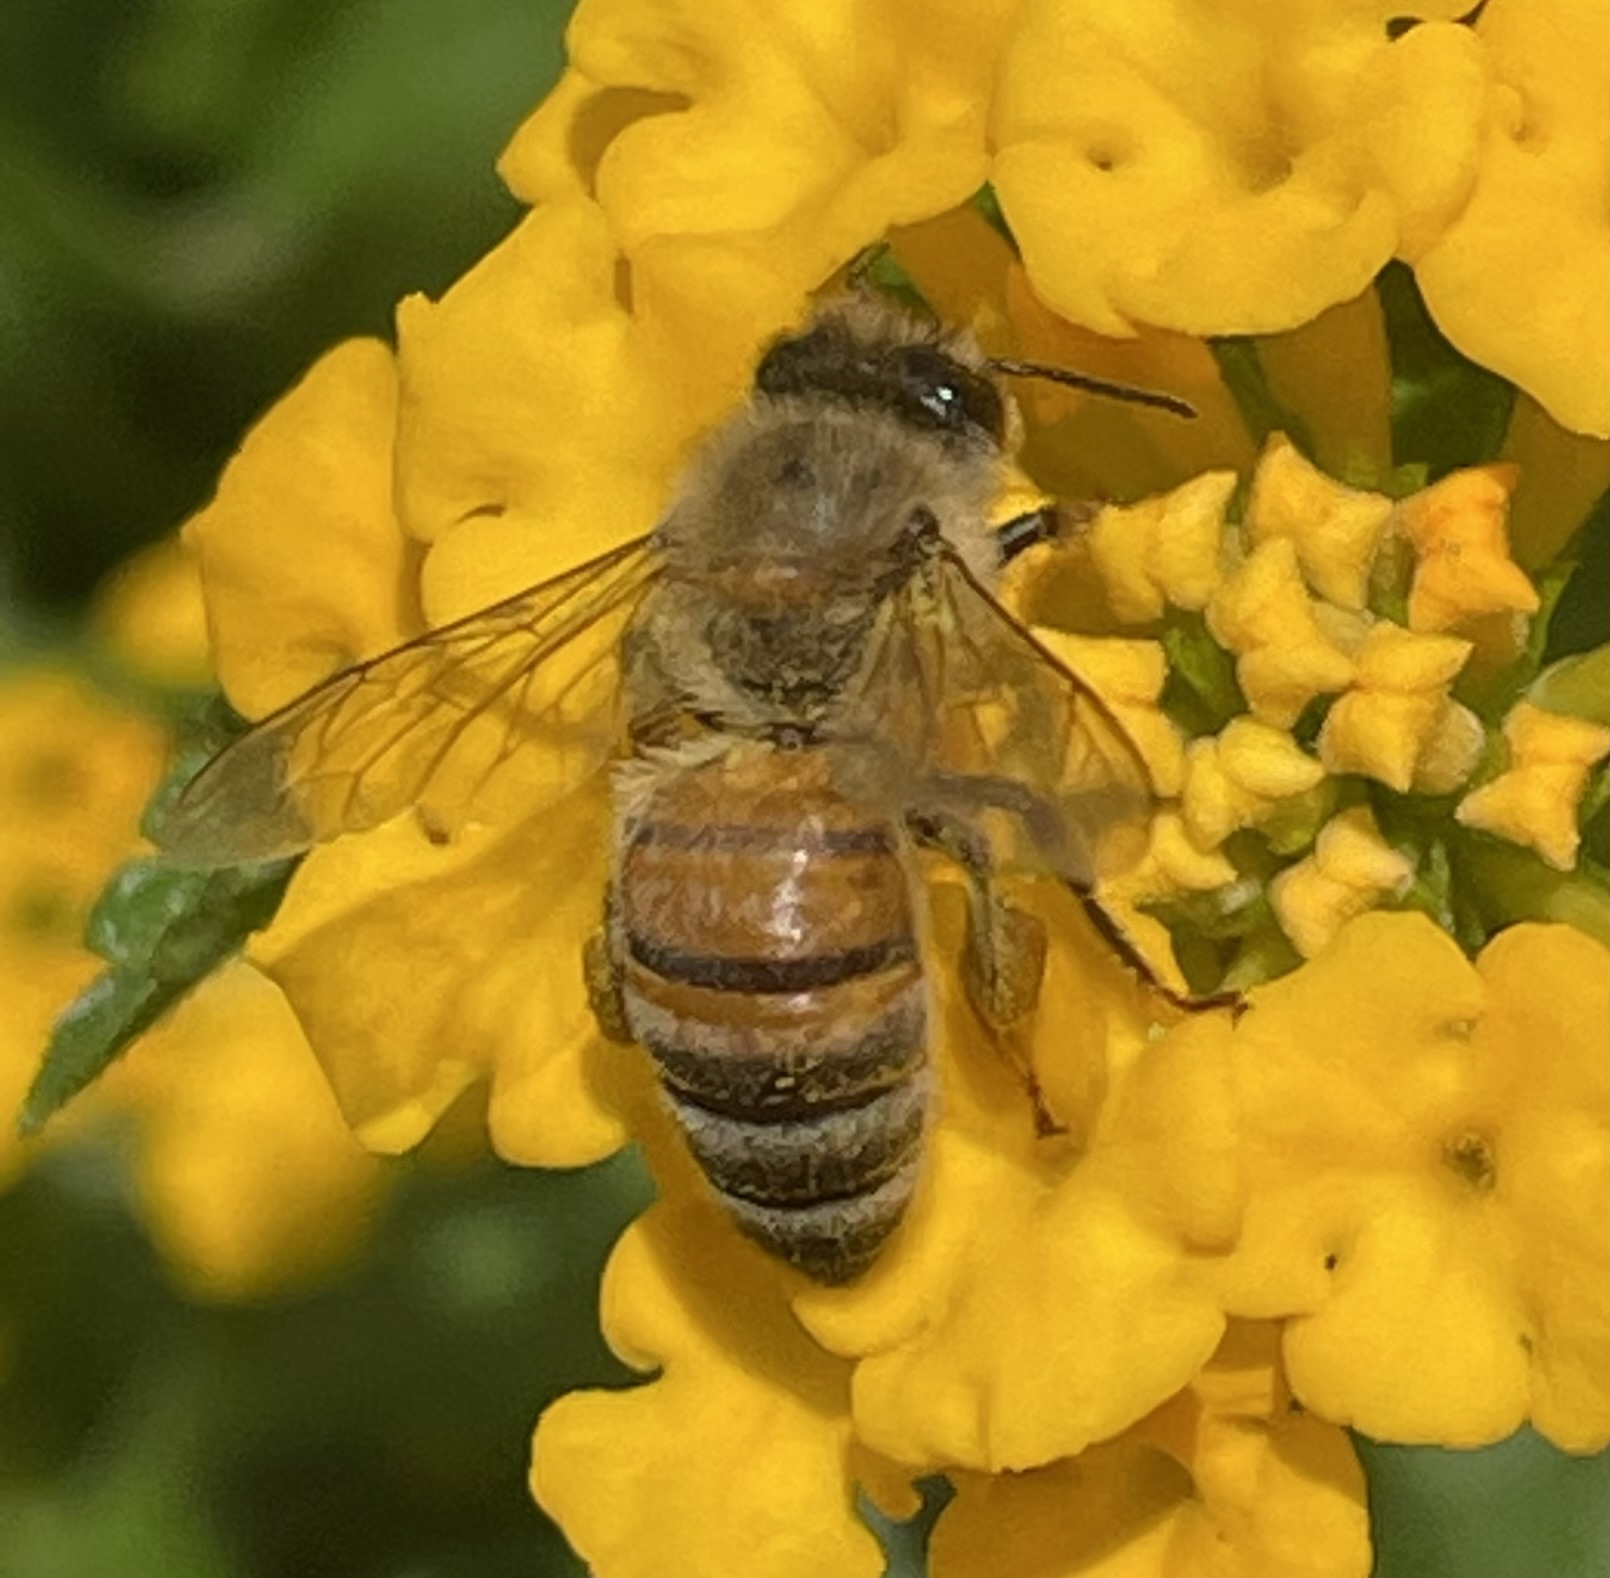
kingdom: Animalia
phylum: Arthropoda
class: Insecta
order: Hymenoptera
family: Apidae
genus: Apis
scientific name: Apis mellifera
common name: Honey bee
